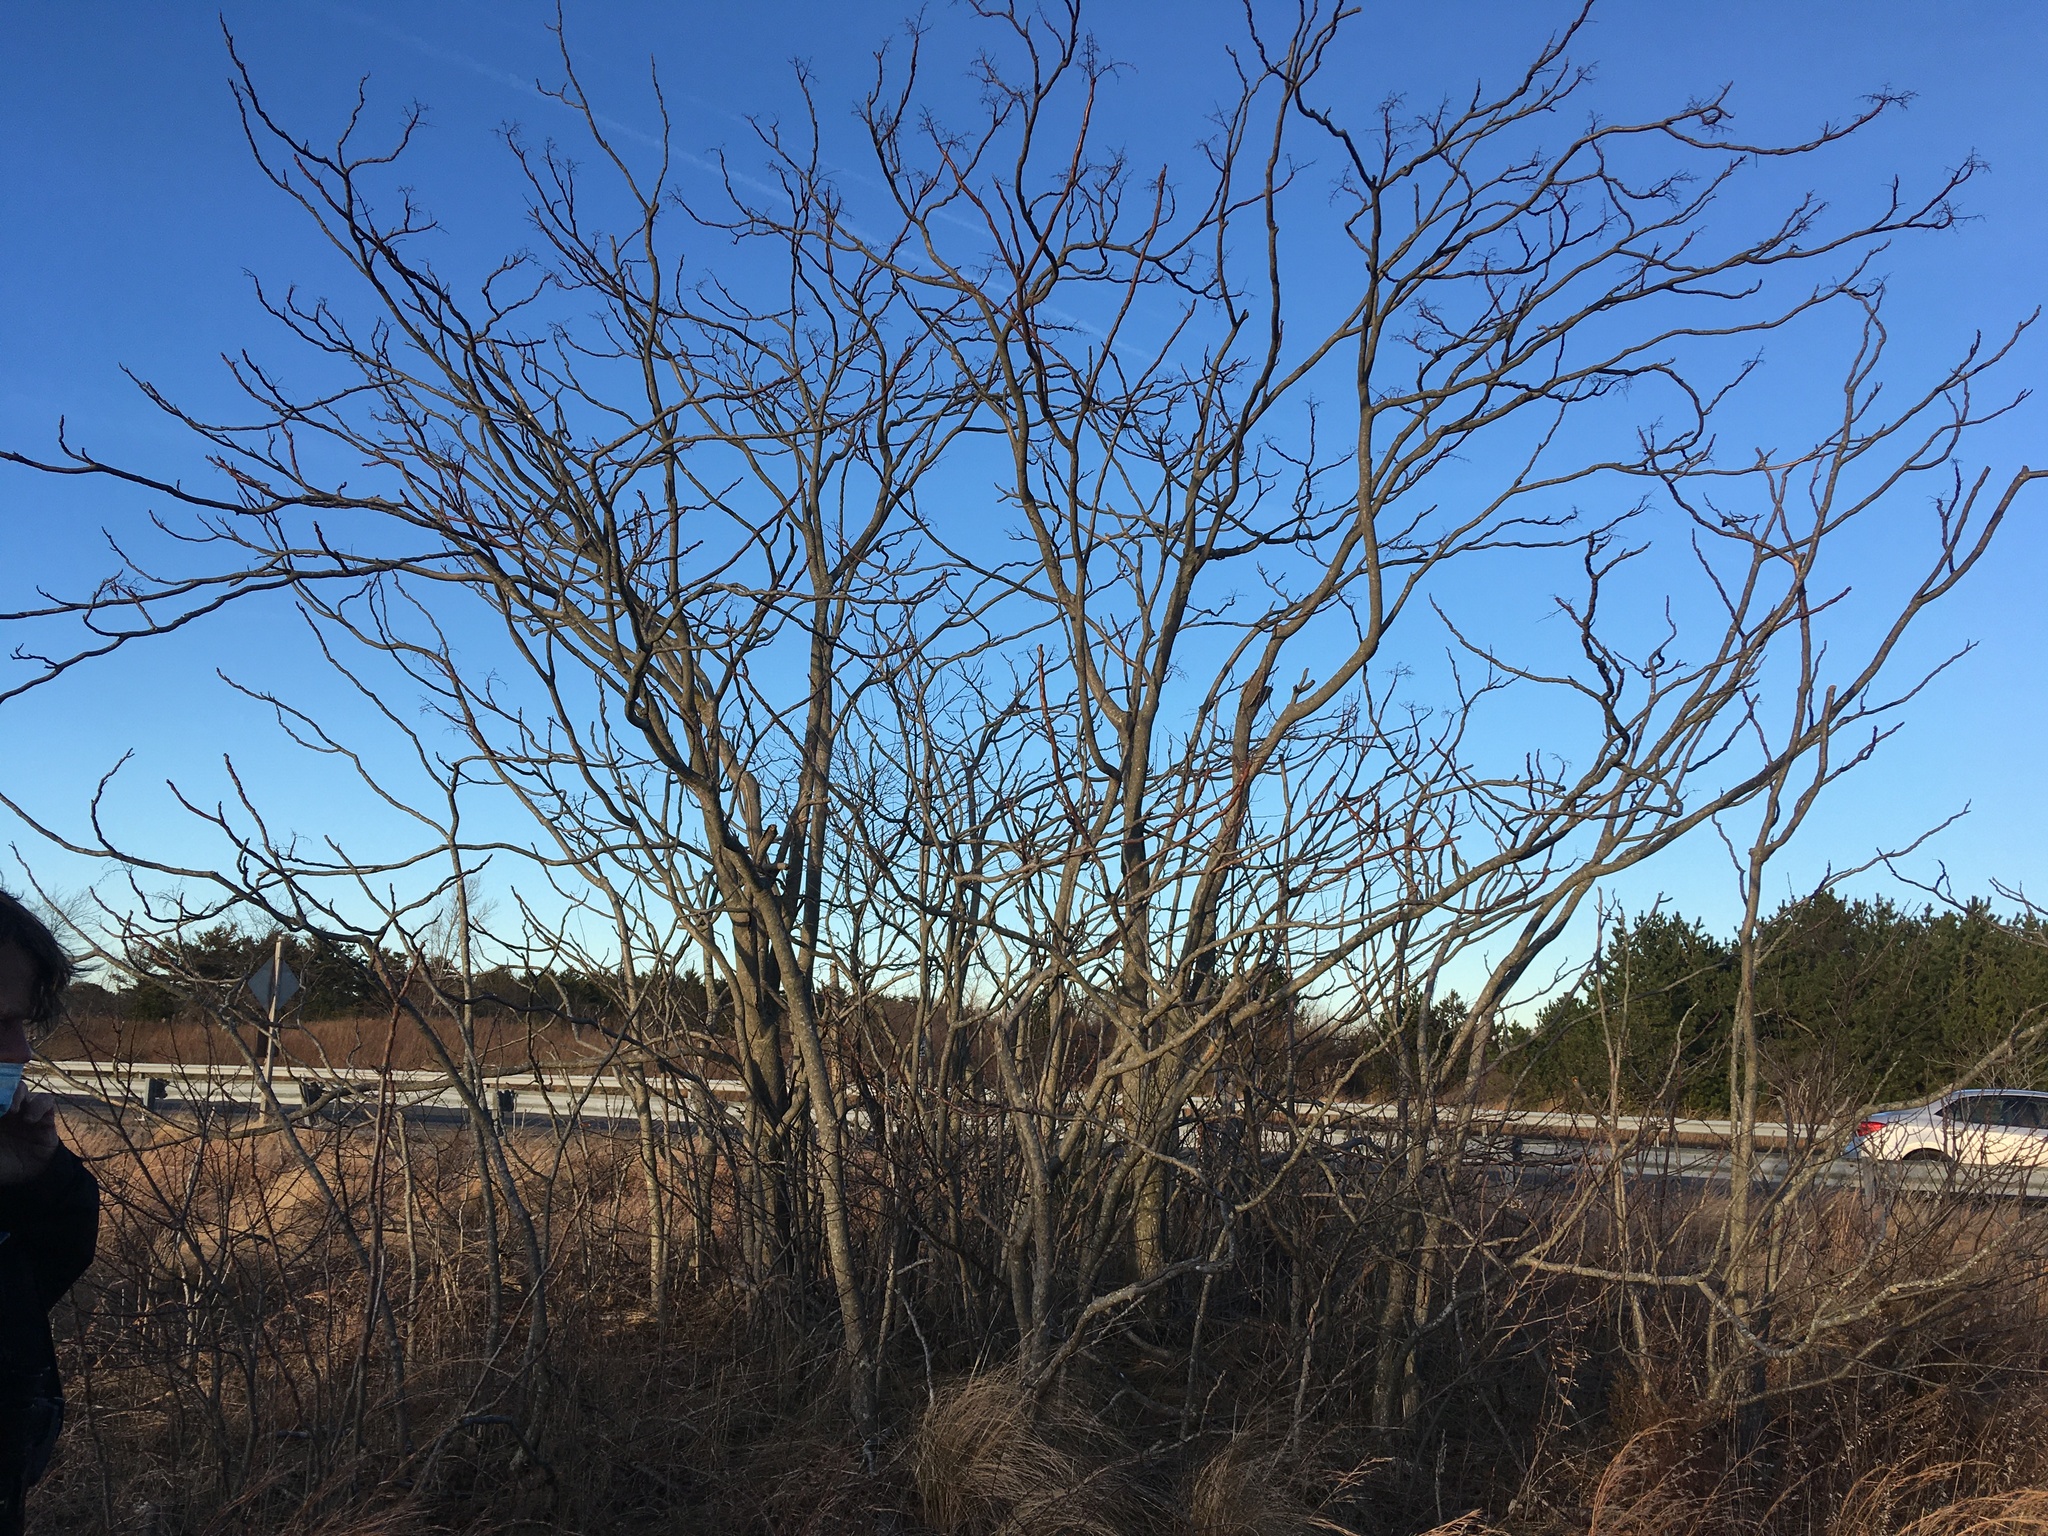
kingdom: Plantae
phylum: Tracheophyta
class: Magnoliopsida
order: Sapindales
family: Simaroubaceae
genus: Ailanthus
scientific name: Ailanthus altissima
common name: Tree-of-heaven
